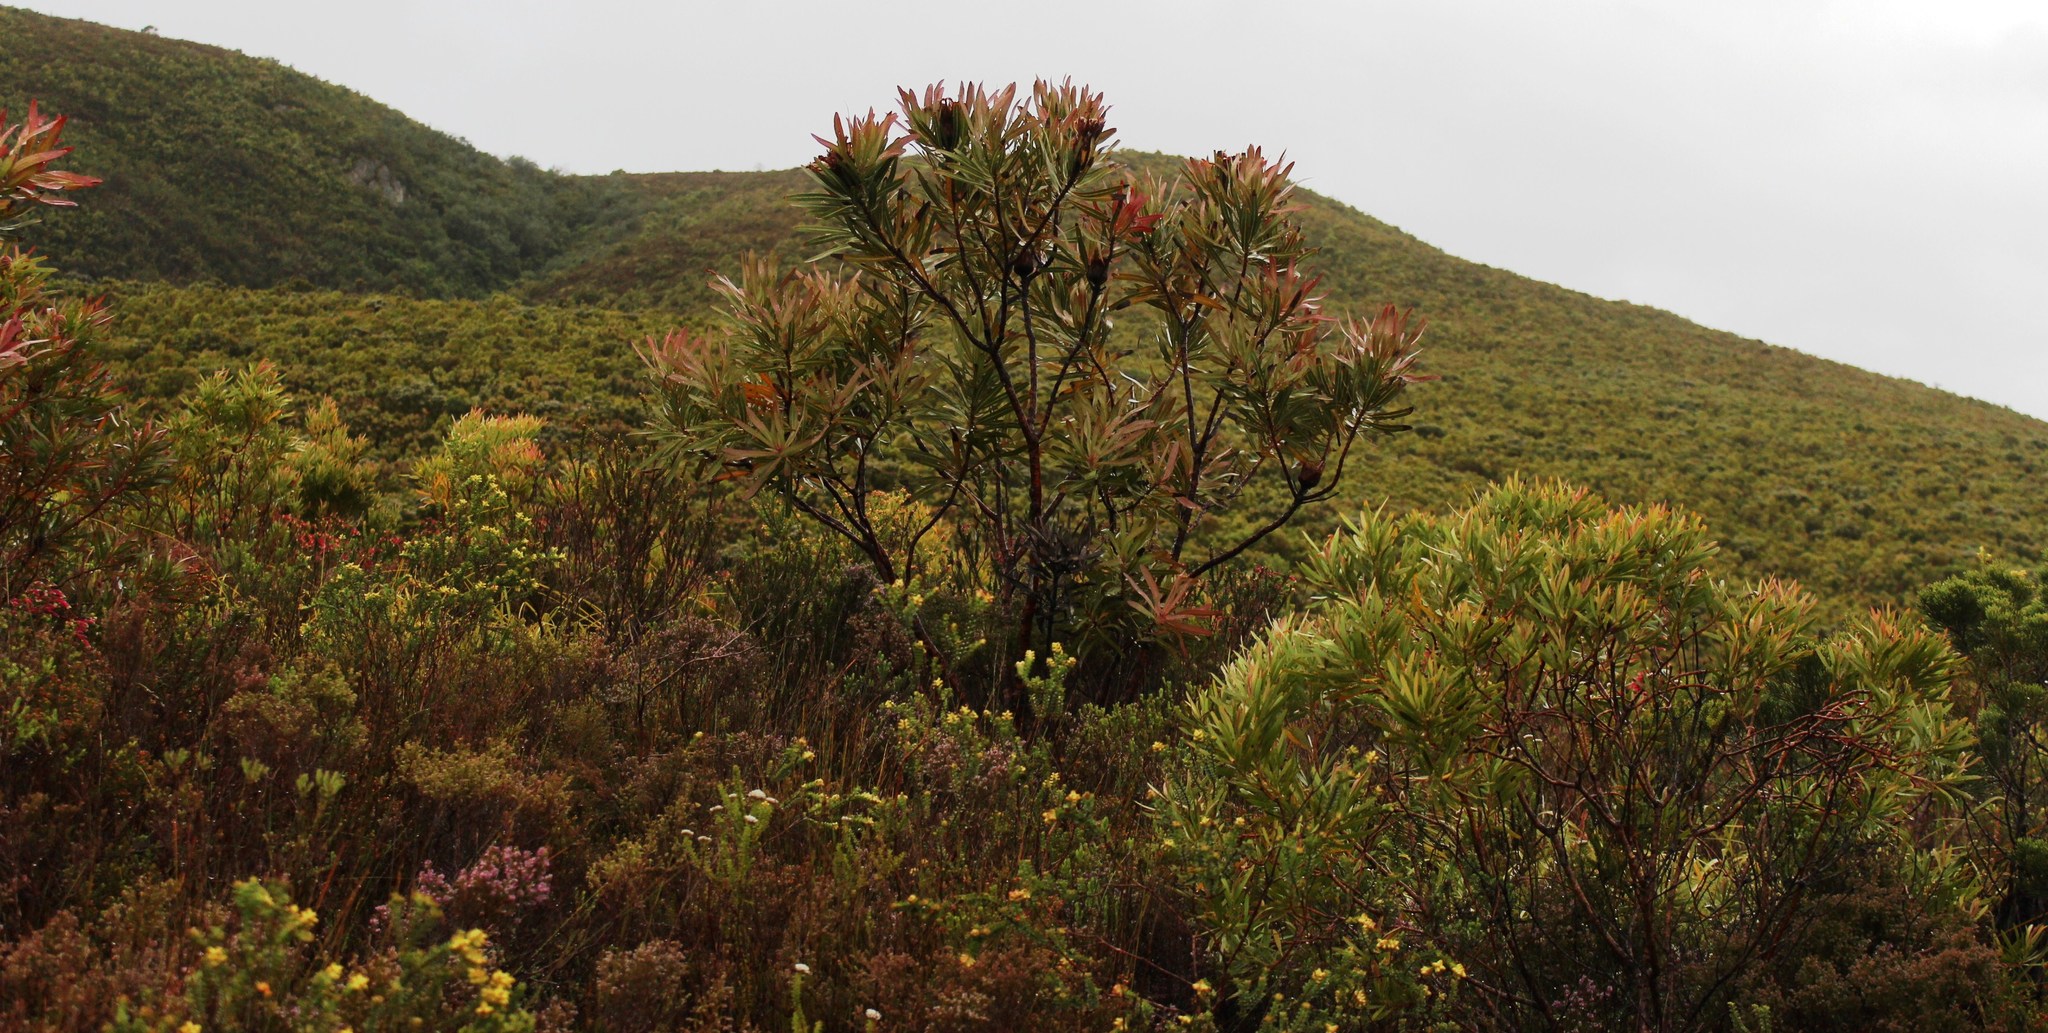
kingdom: Plantae
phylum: Tracheophyta
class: Magnoliopsida
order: Proteales
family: Proteaceae
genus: Protea
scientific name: Protea neriifolia
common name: Blue sugarbush
